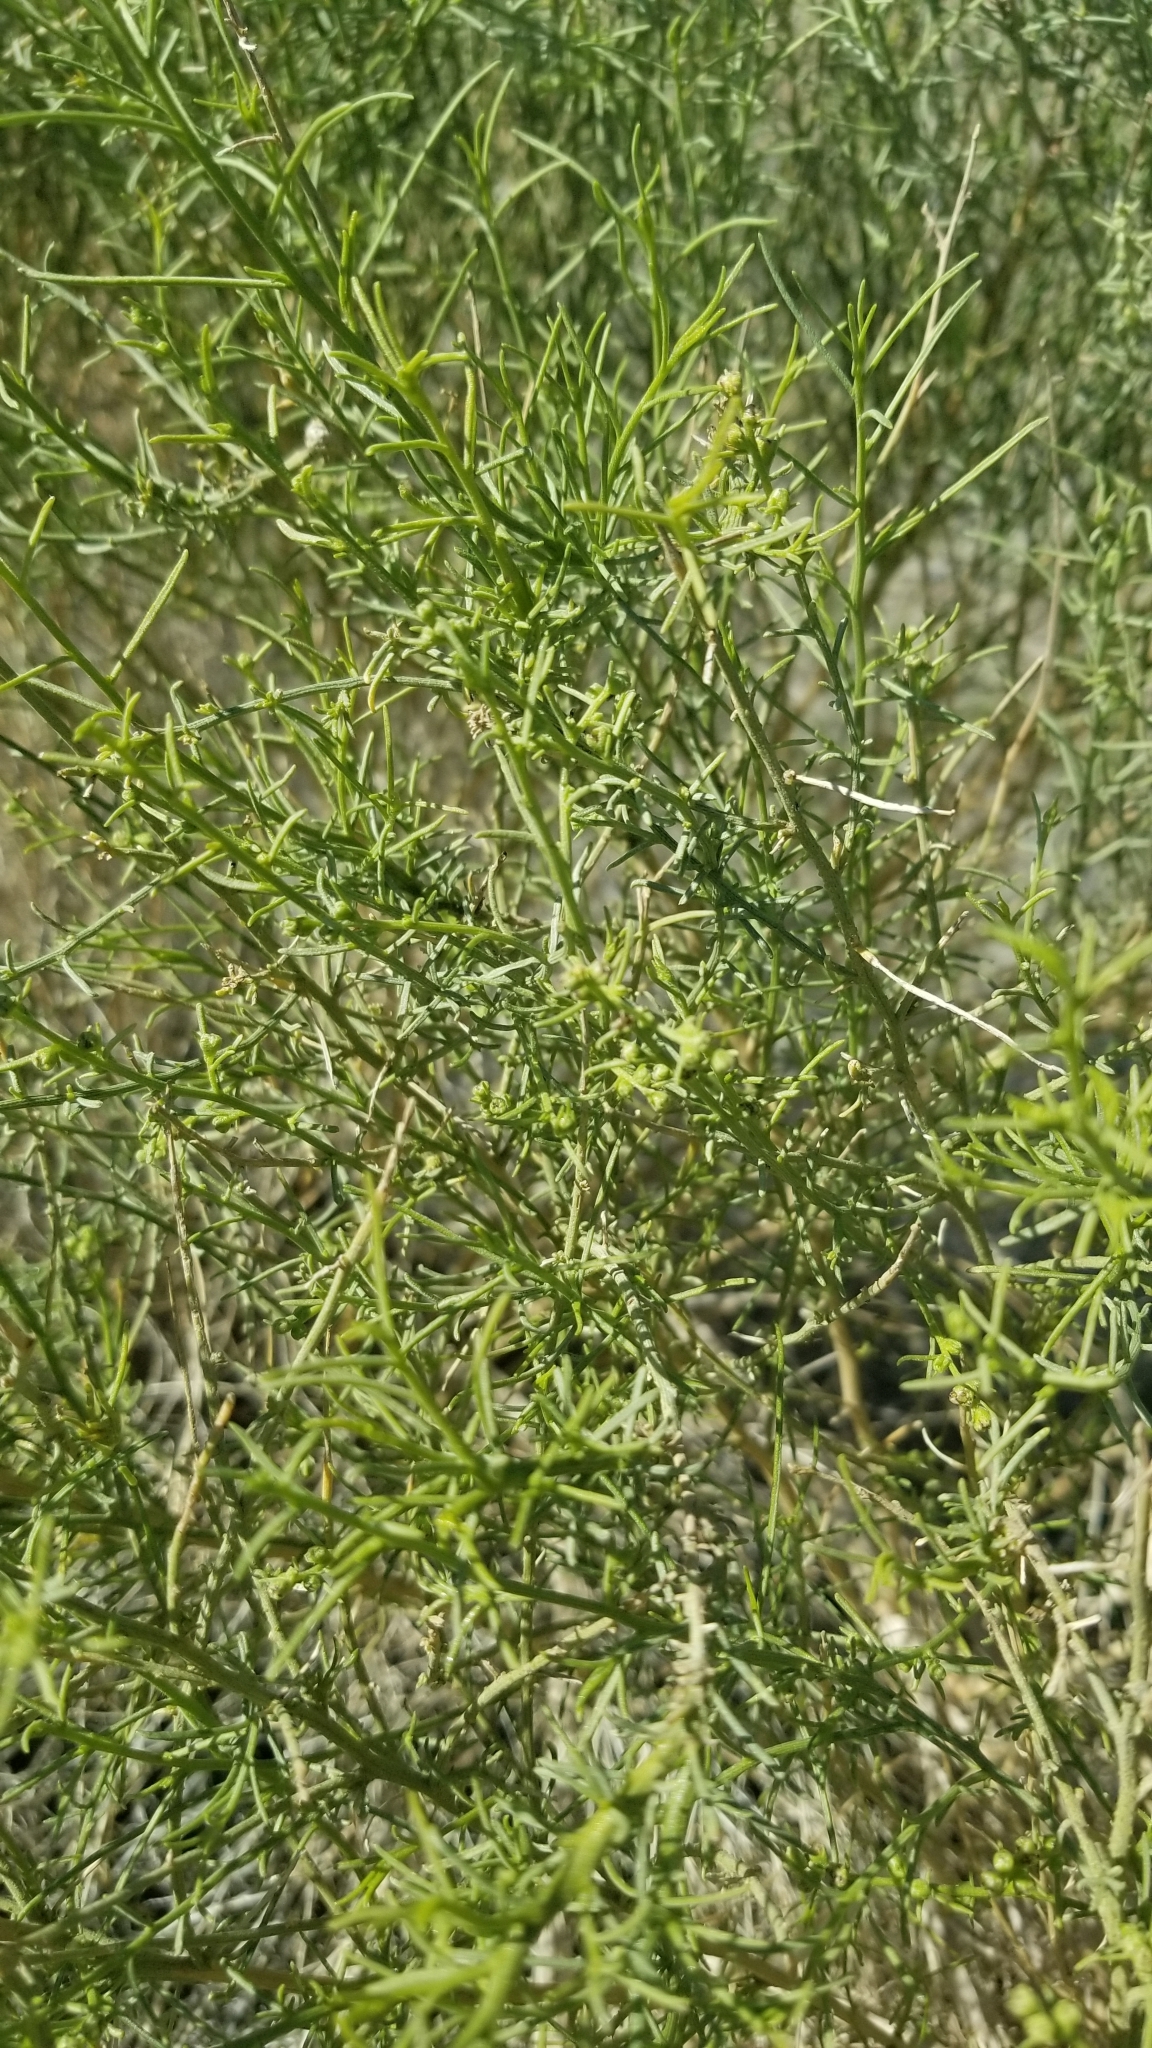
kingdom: Plantae
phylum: Tracheophyta
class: Magnoliopsida
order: Asterales
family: Asteraceae
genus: Ambrosia
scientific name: Ambrosia salsola
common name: Burrobrush
